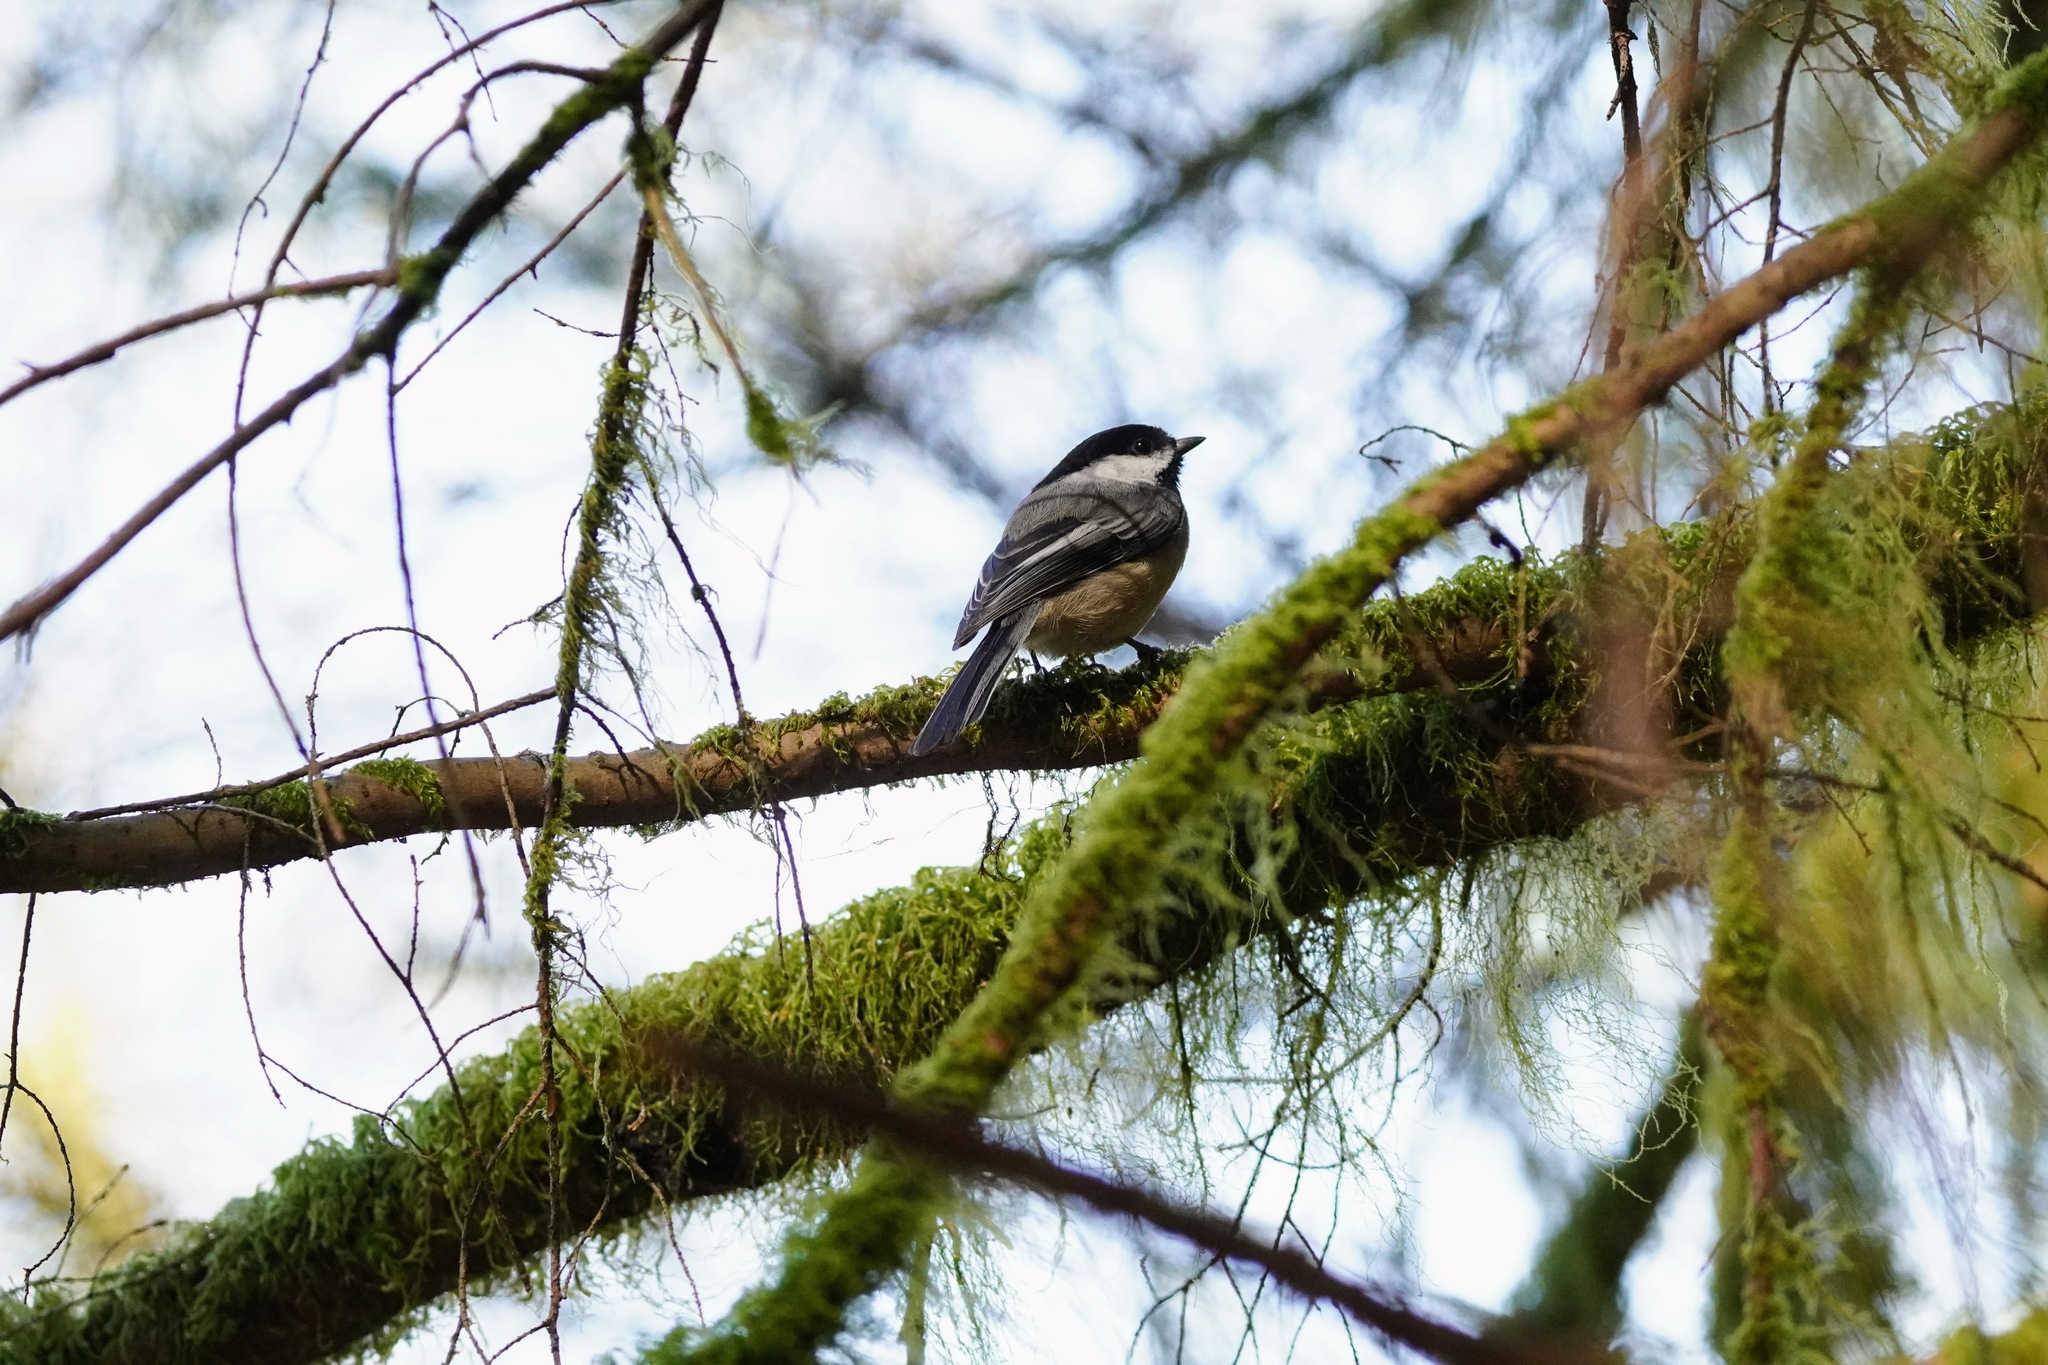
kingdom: Animalia
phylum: Chordata
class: Aves
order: Passeriformes
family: Paridae
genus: Poecile
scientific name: Poecile atricapillus
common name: Black-capped chickadee
